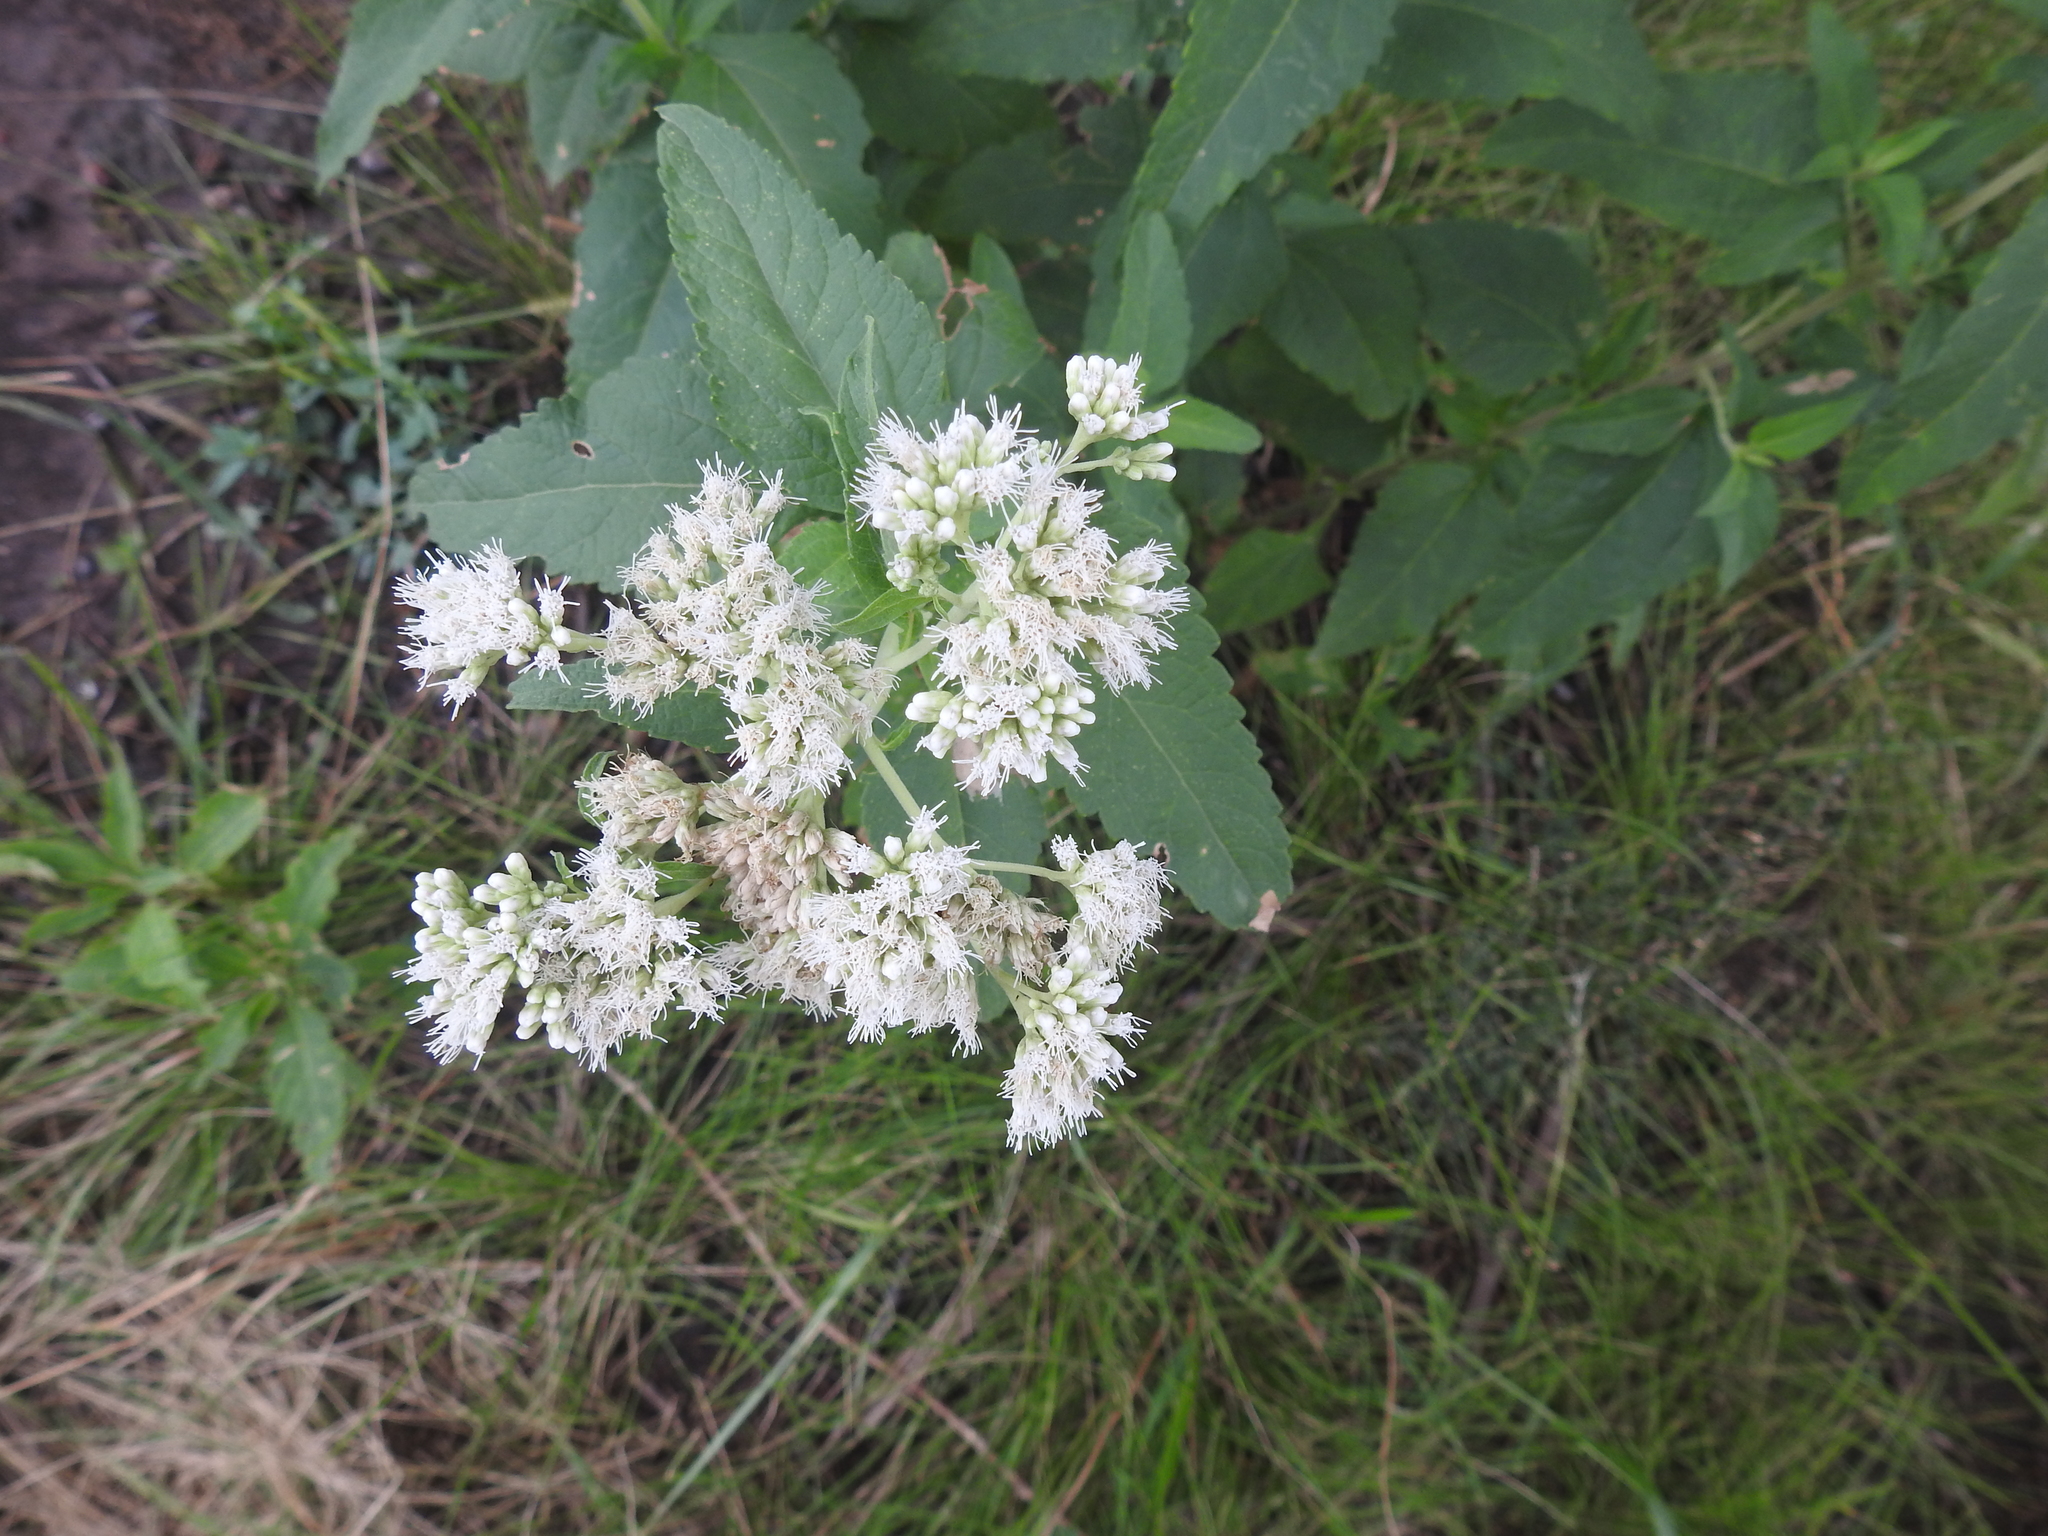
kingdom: Plantae
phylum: Tracheophyta
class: Magnoliopsida
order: Asterales
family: Asteraceae
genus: Austroeupatorium
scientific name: Austroeupatorium inulifolium
